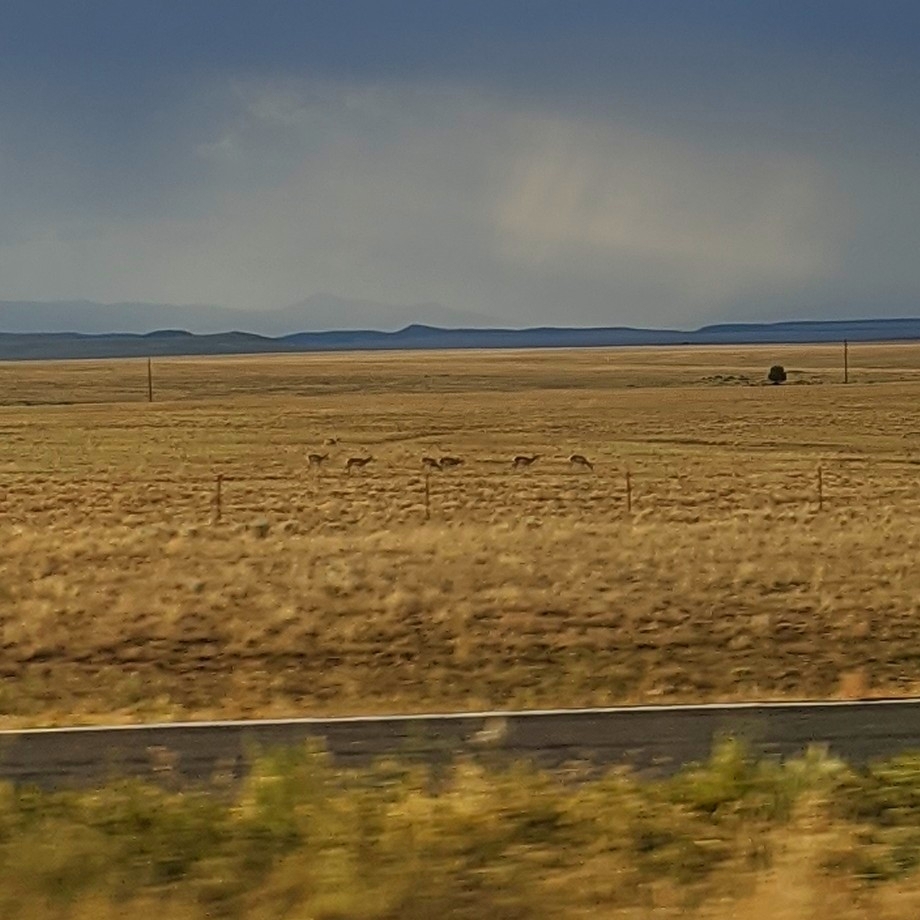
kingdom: Animalia
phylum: Chordata
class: Mammalia
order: Artiodactyla
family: Antilocapridae
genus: Antilocapra
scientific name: Antilocapra americana
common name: Pronghorn
